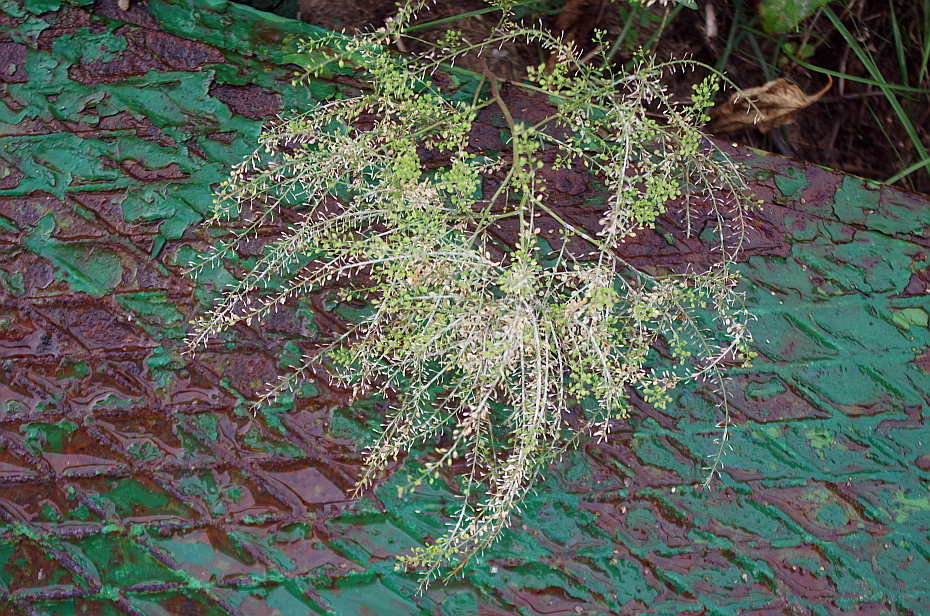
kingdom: Plantae
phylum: Tracheophyta
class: Magnoliopsida
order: Brassicales
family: Brassicaceae
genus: Lepidium
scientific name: Lepidium ruderale
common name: Narrow-leaved pepperwort
